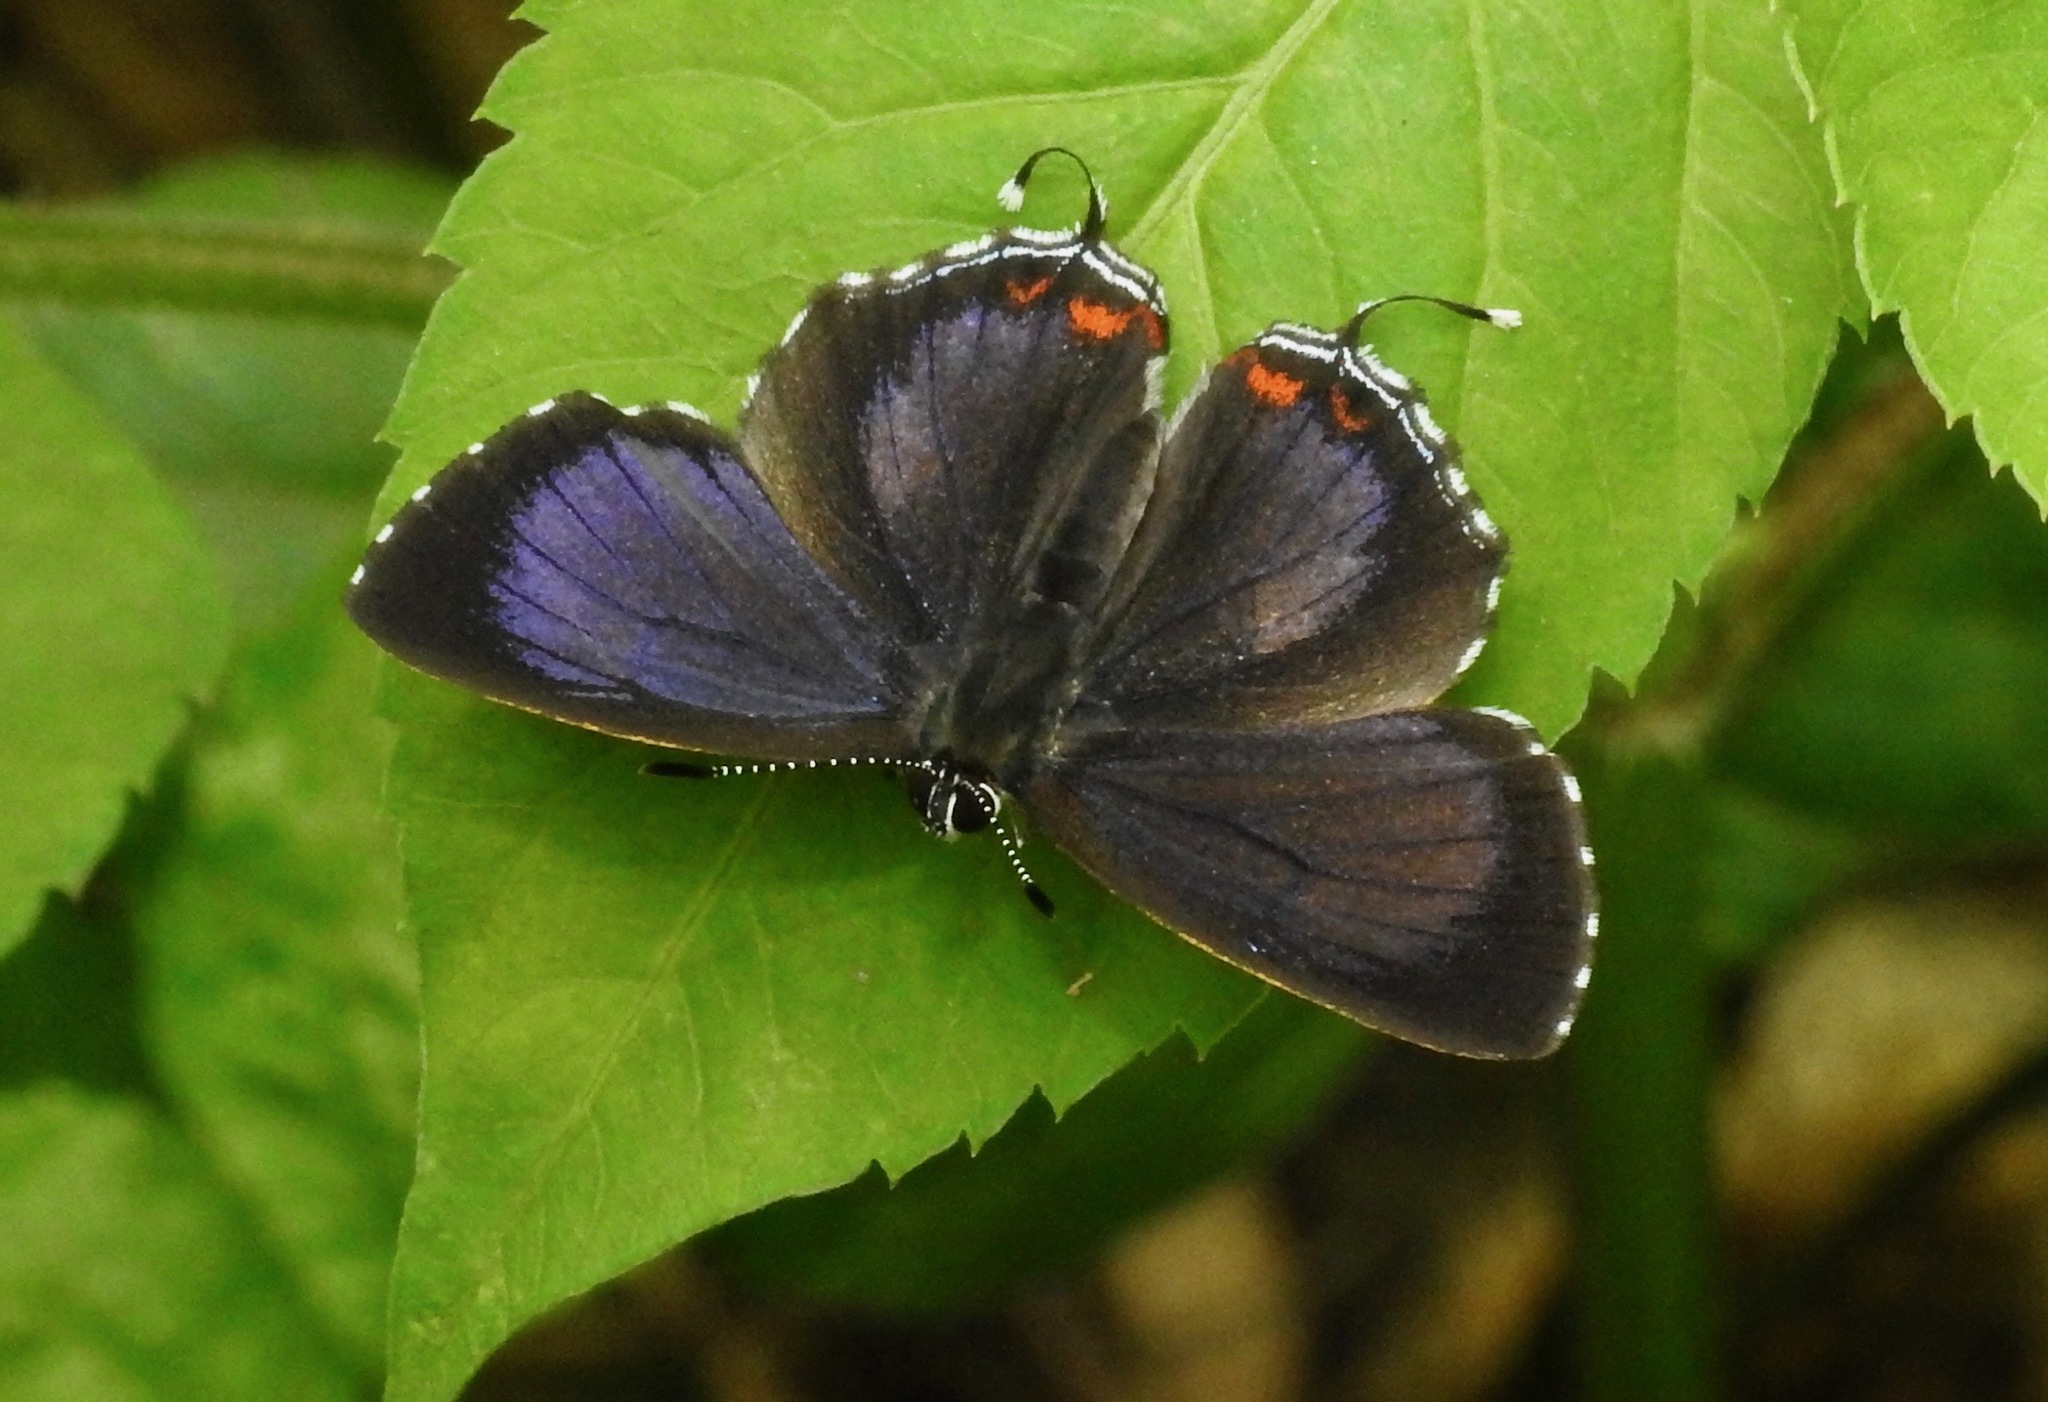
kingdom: Animalia
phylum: Arthropoda
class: Insecta
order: Lepidoptera
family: Lycaenidae
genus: Heliophorus
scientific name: Heliophorus kohimensis
